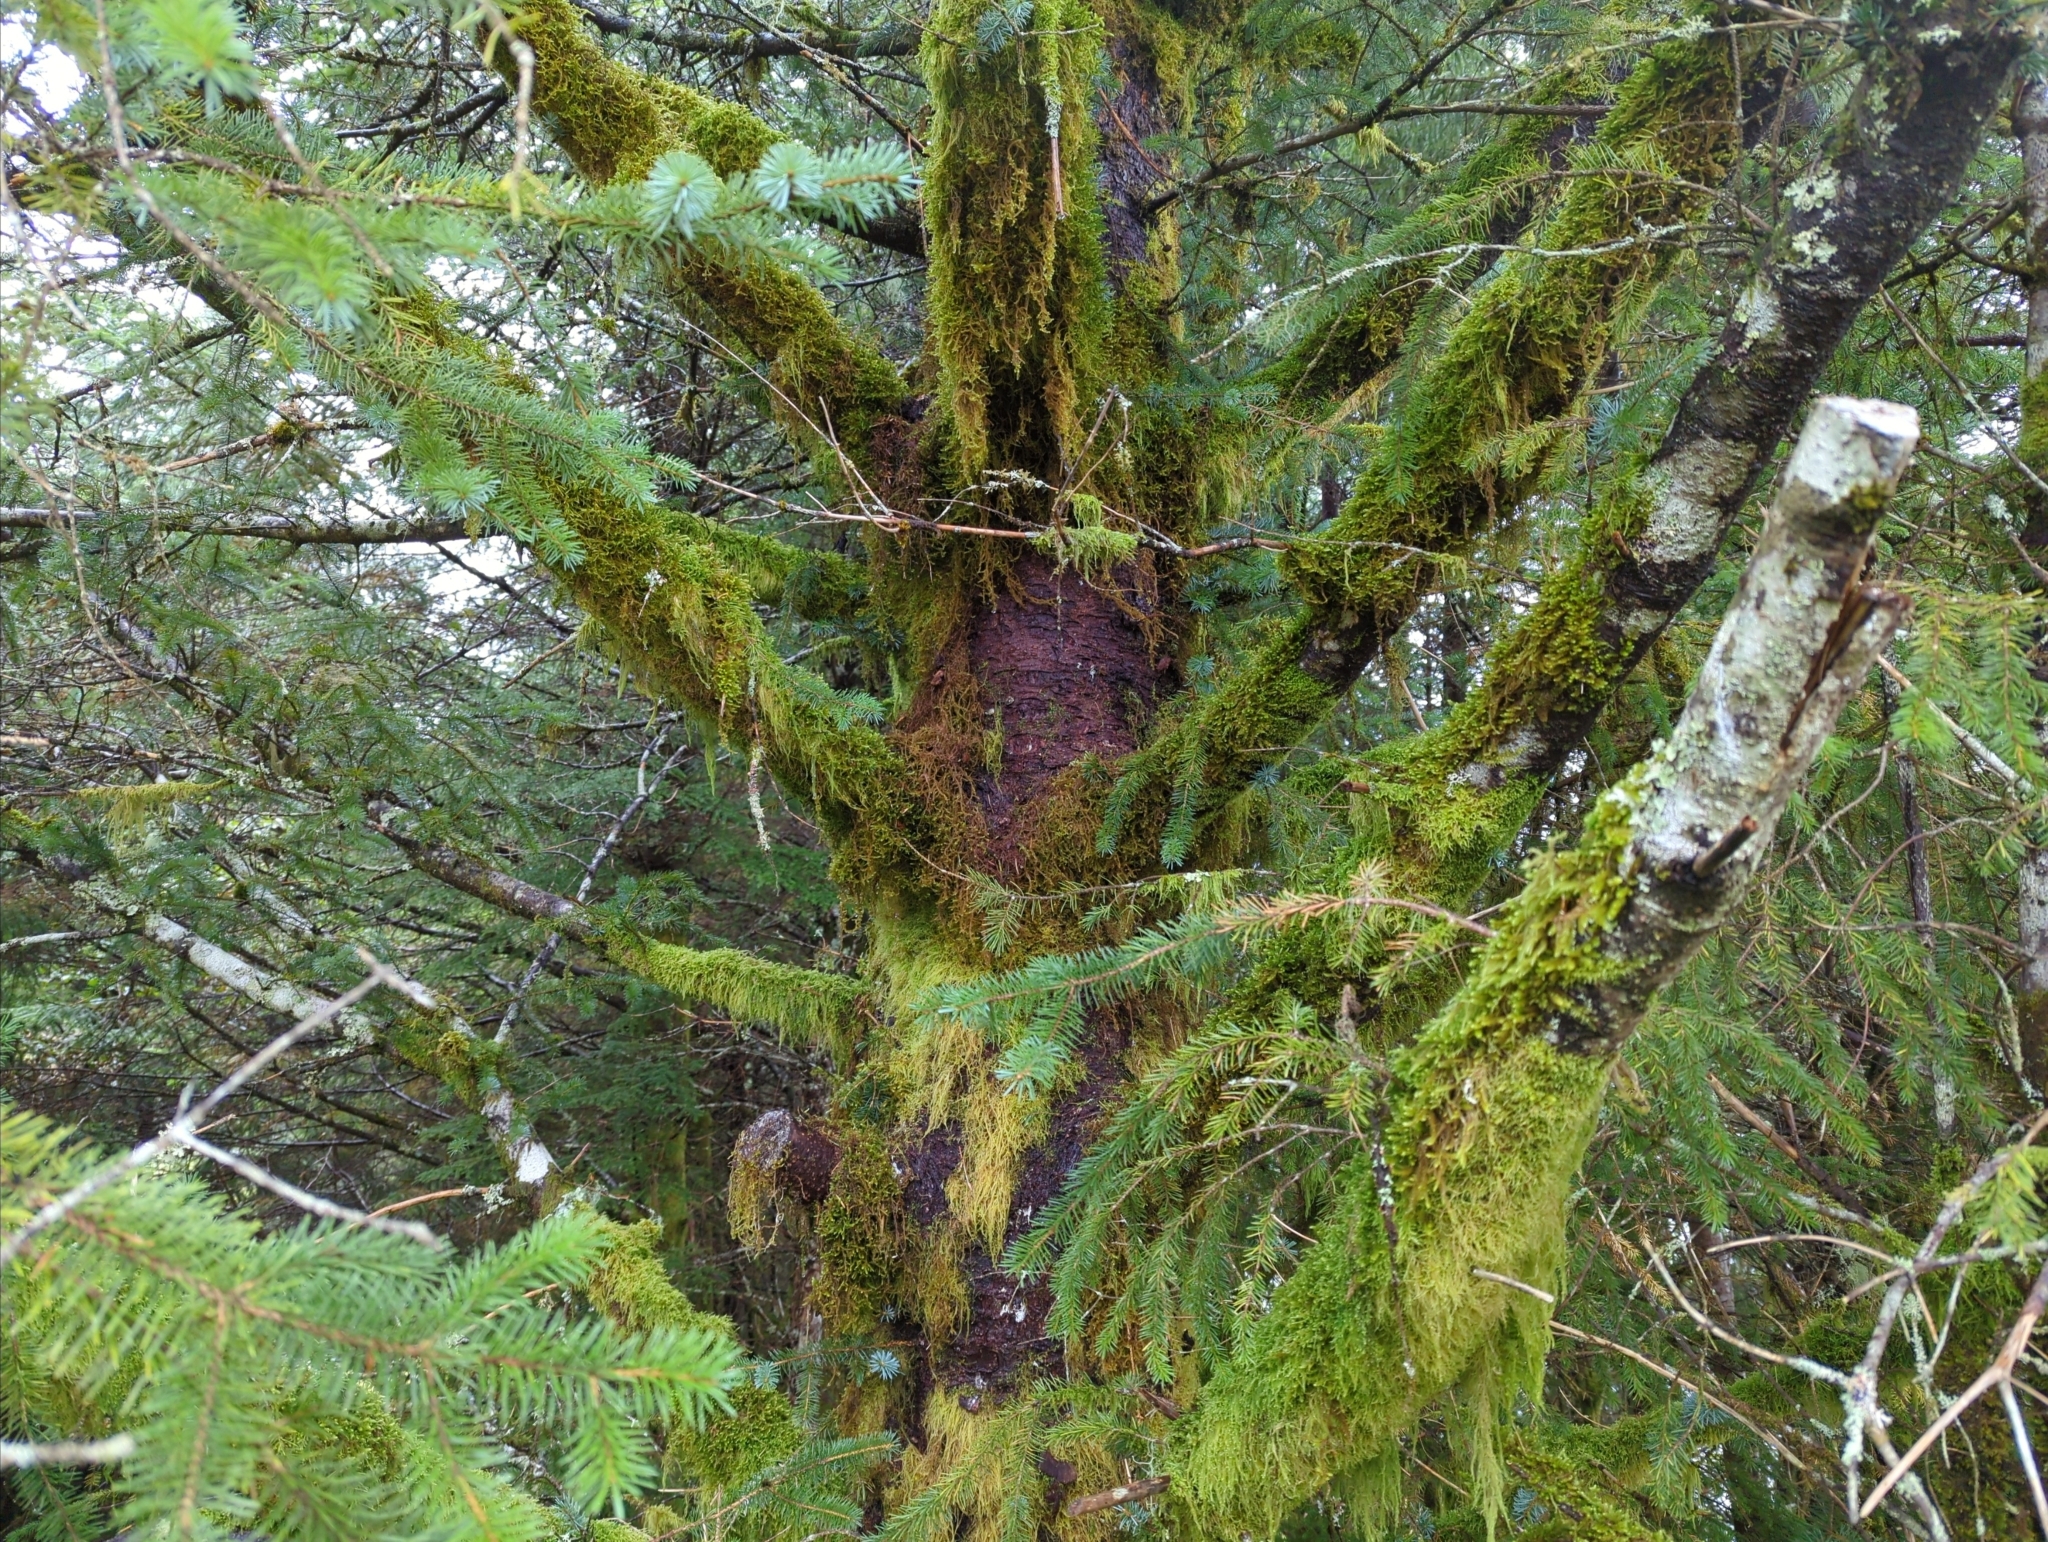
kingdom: Plantae
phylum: Tracheophyta
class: Pinopsida
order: Pinales
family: Pinaceae
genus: Picea
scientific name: Picea sitchensis
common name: Sitka spruce
